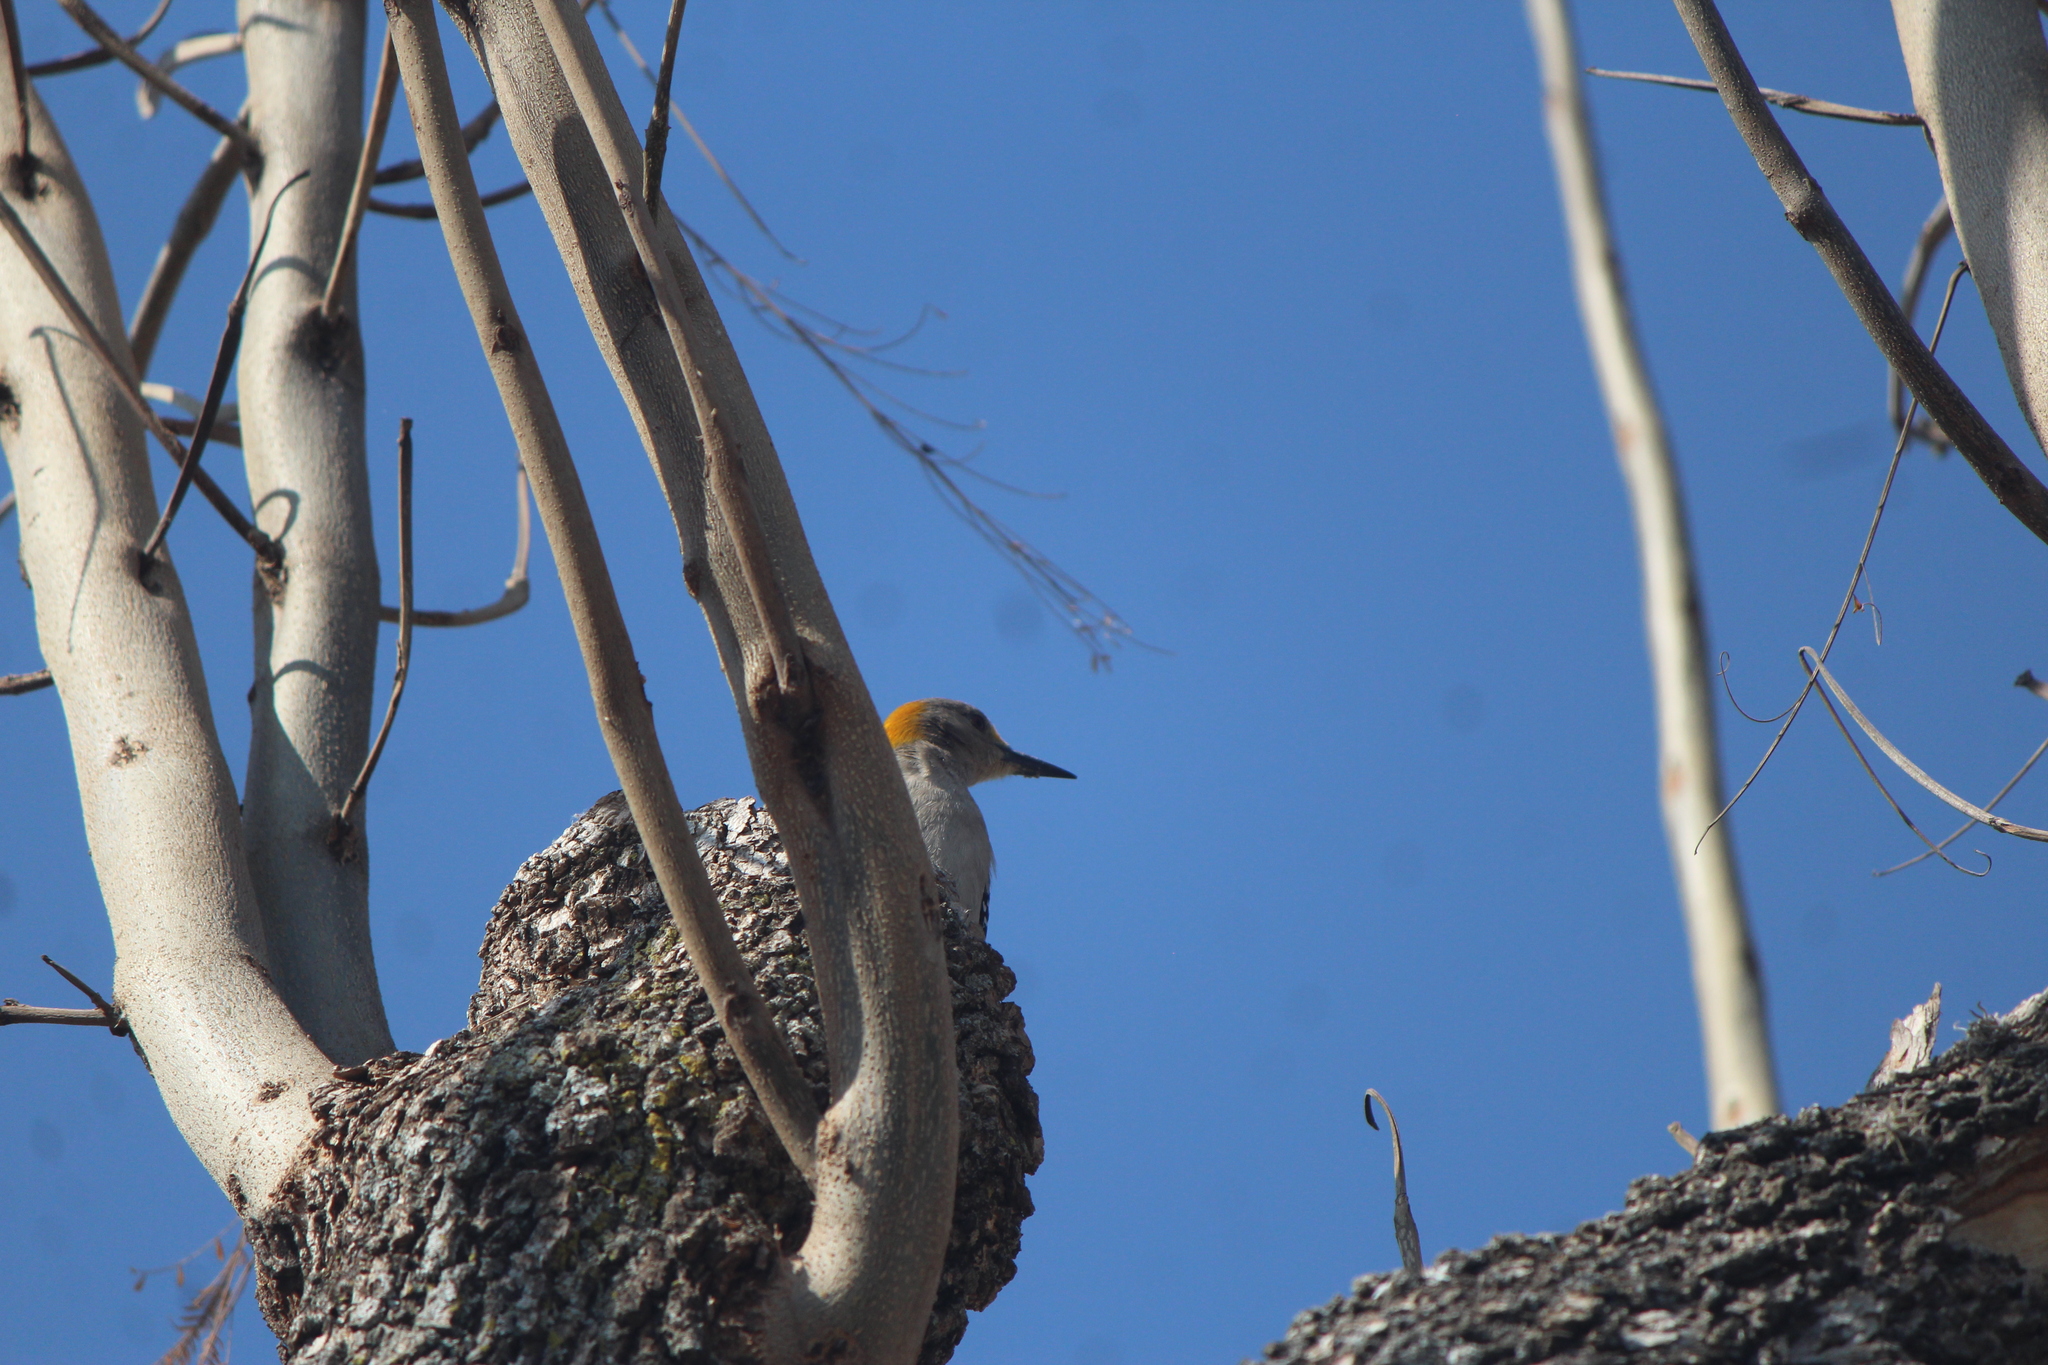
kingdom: Animalia
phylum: Chordata
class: Aves
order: Piciformes
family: Picidae
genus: Melanerpes
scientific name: Melanerpes aurifrons
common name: Golden-fronted woodpecker
